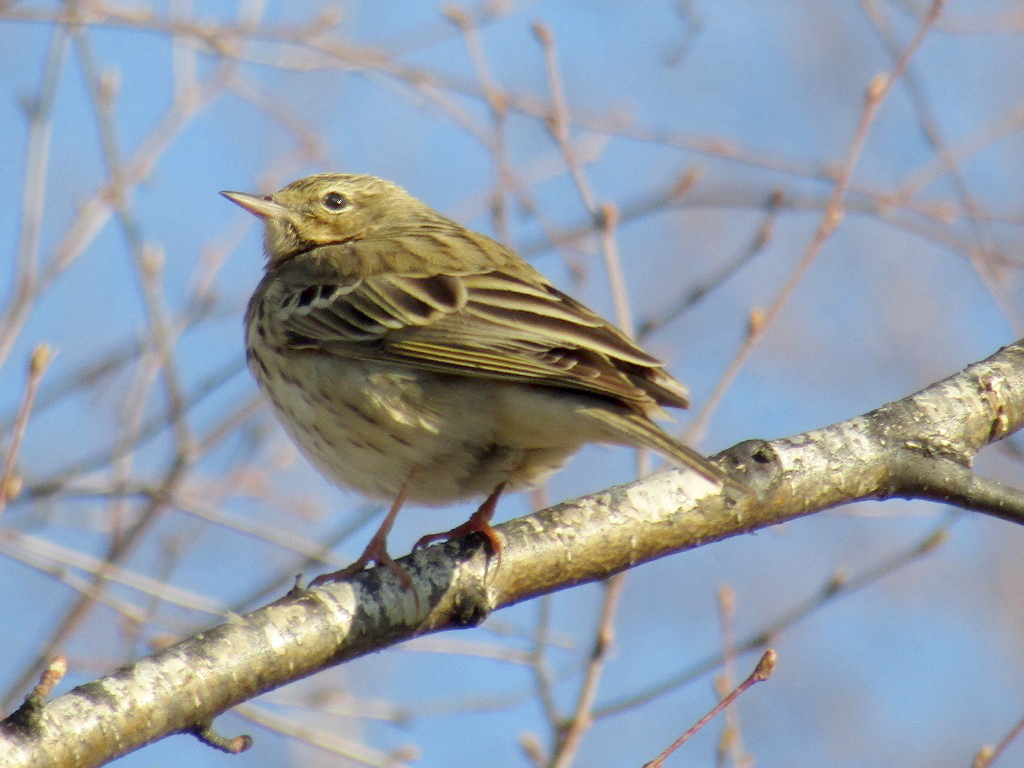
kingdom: Animalia
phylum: Chordata
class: Aves
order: Passeriformes
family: Motacillidae
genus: Anthus
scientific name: Anthus trivialis
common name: Tree pipit
